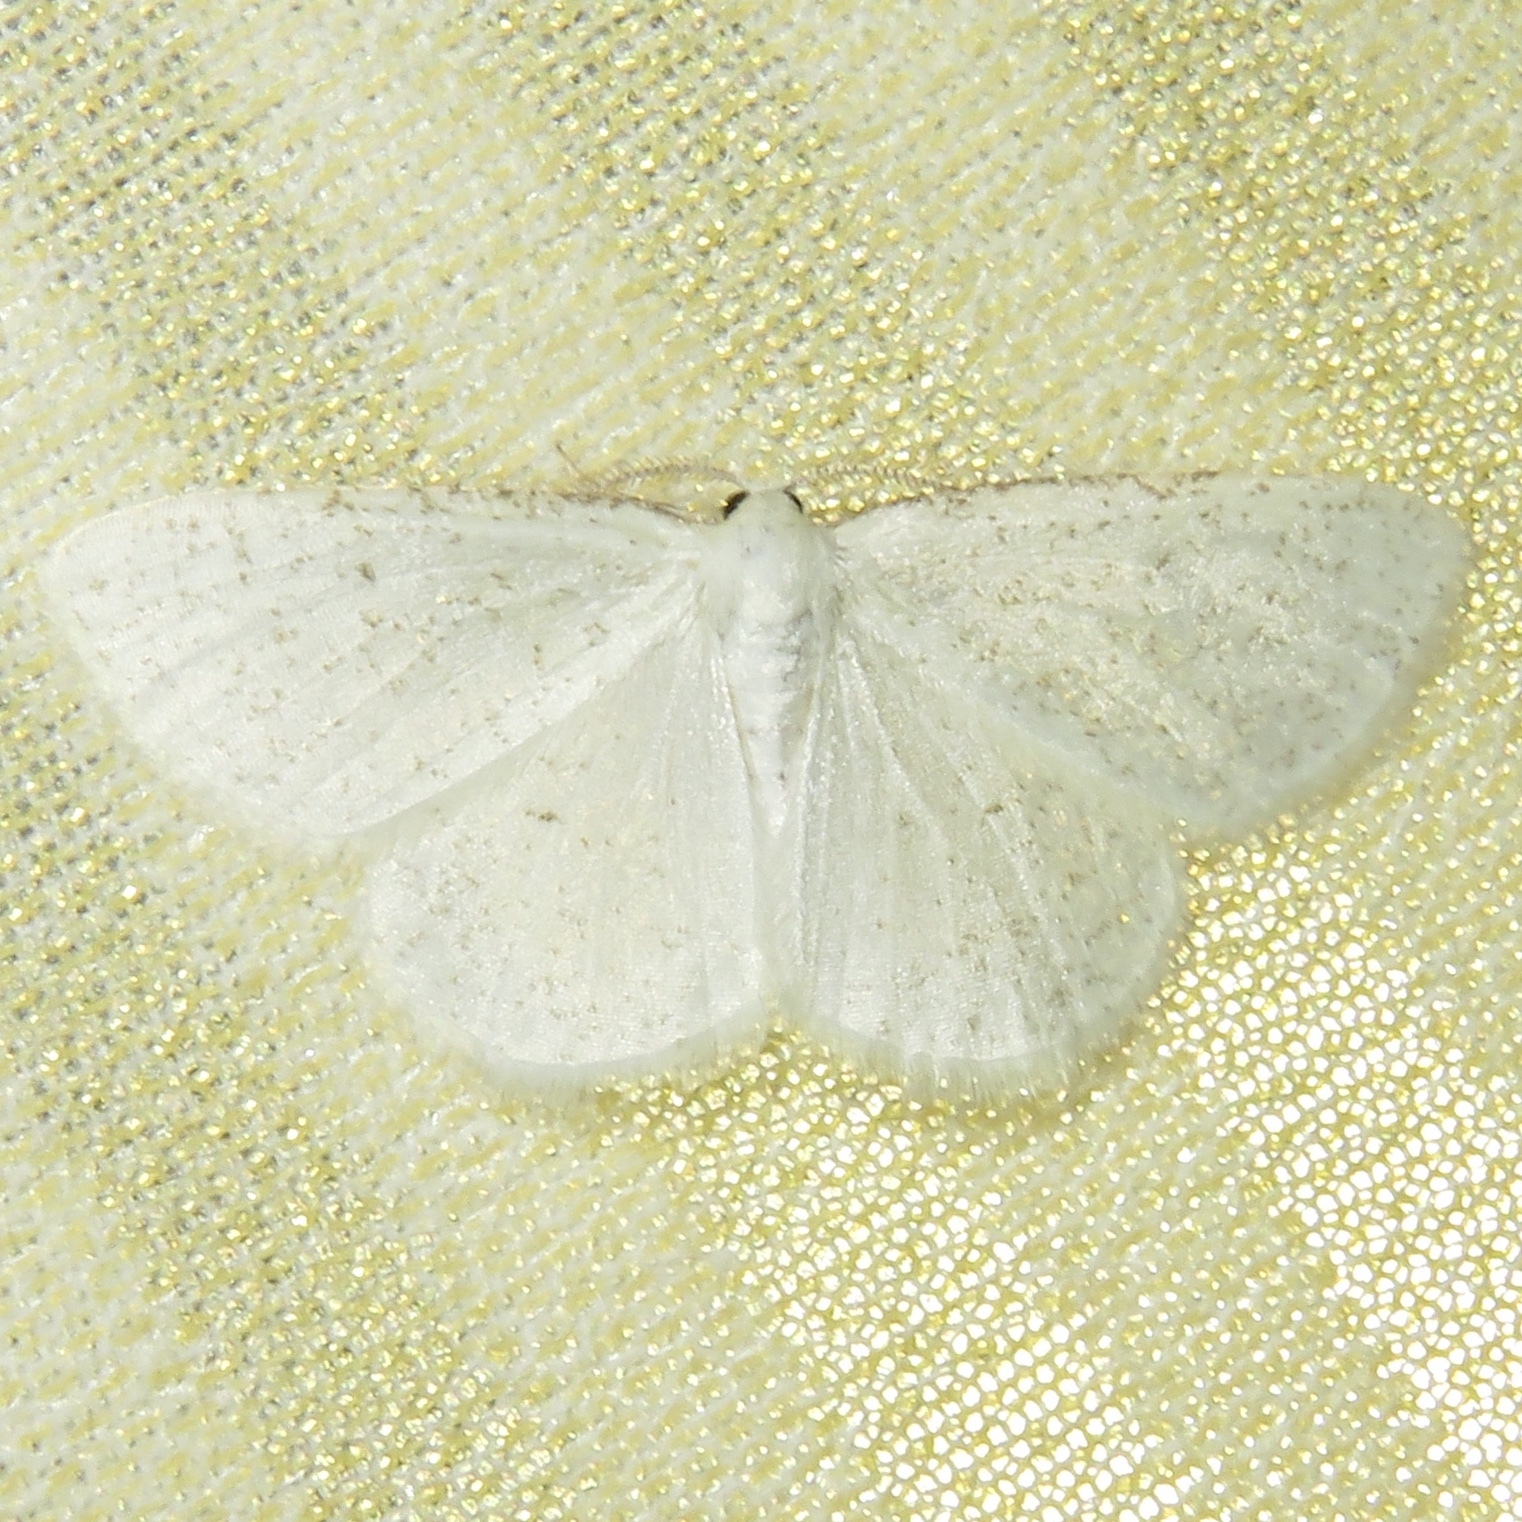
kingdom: Animalia
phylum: Arthropoda
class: Insecta
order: Lepidoptera
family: Geometridae
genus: Protitame
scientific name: Protitame virginalis
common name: Virgin moth
